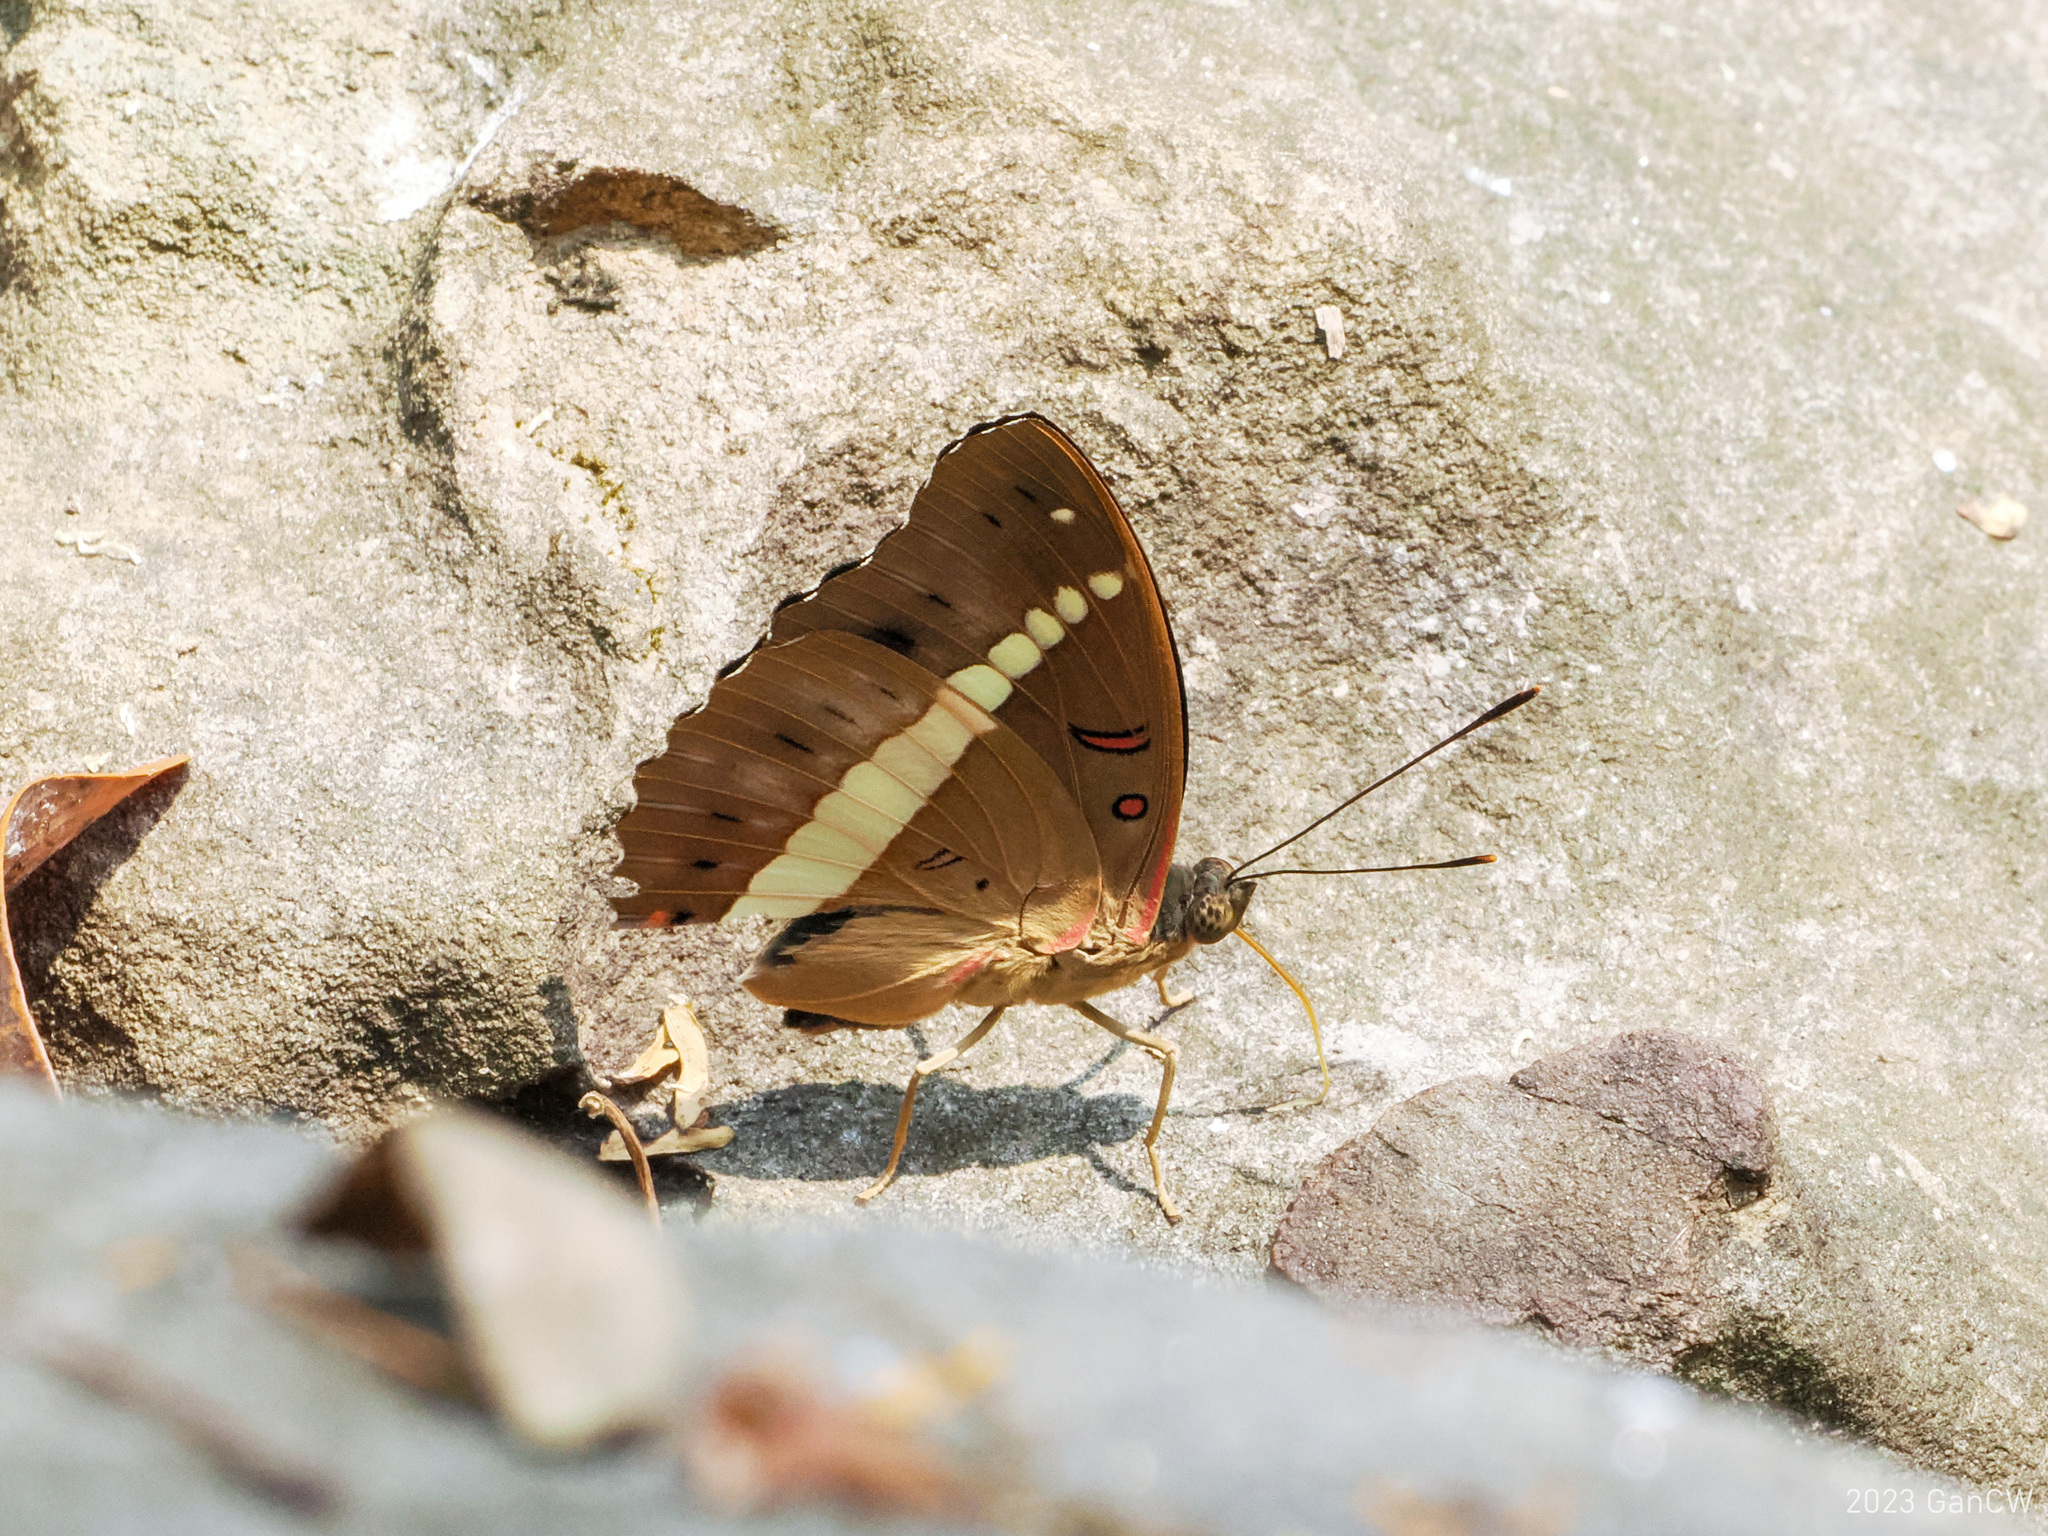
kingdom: Animalia
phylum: Arthropoda
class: Insecta
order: Lepidoptera
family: Nymphalidae
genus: Euthalia
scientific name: Euthalia recta
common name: Redtail marquis
